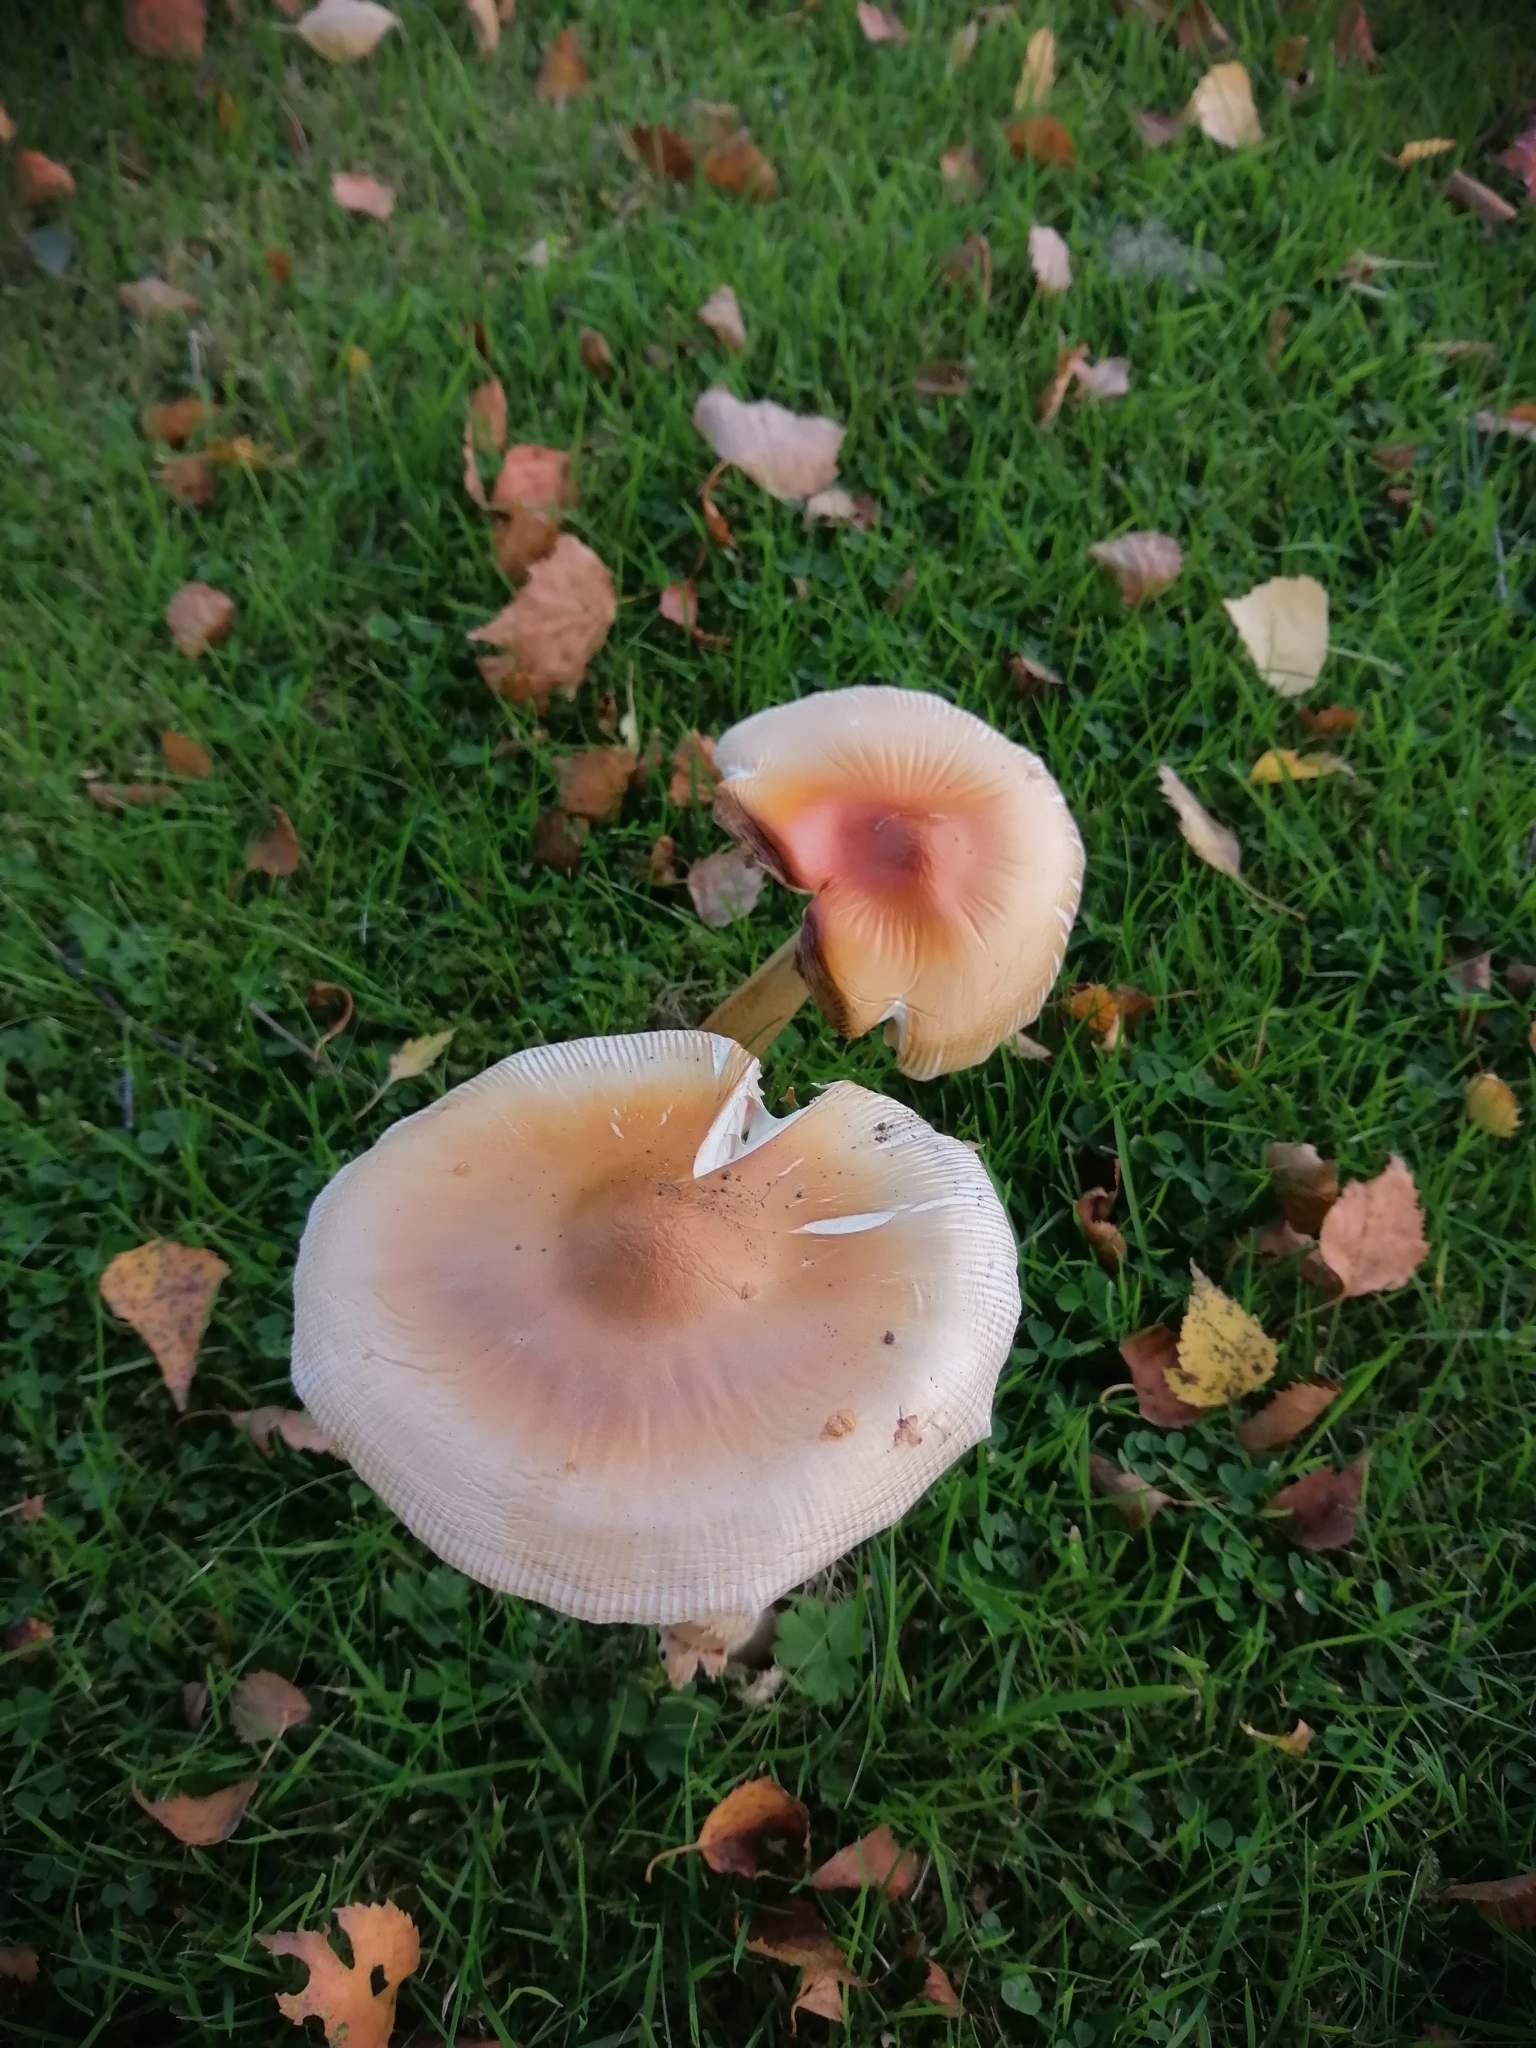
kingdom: Fungi
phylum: Basidiomycota
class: Agaricomycetes
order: Agaricales
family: Amanitaceae
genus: Amanita
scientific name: Amanita crocea
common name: Orange grisette
